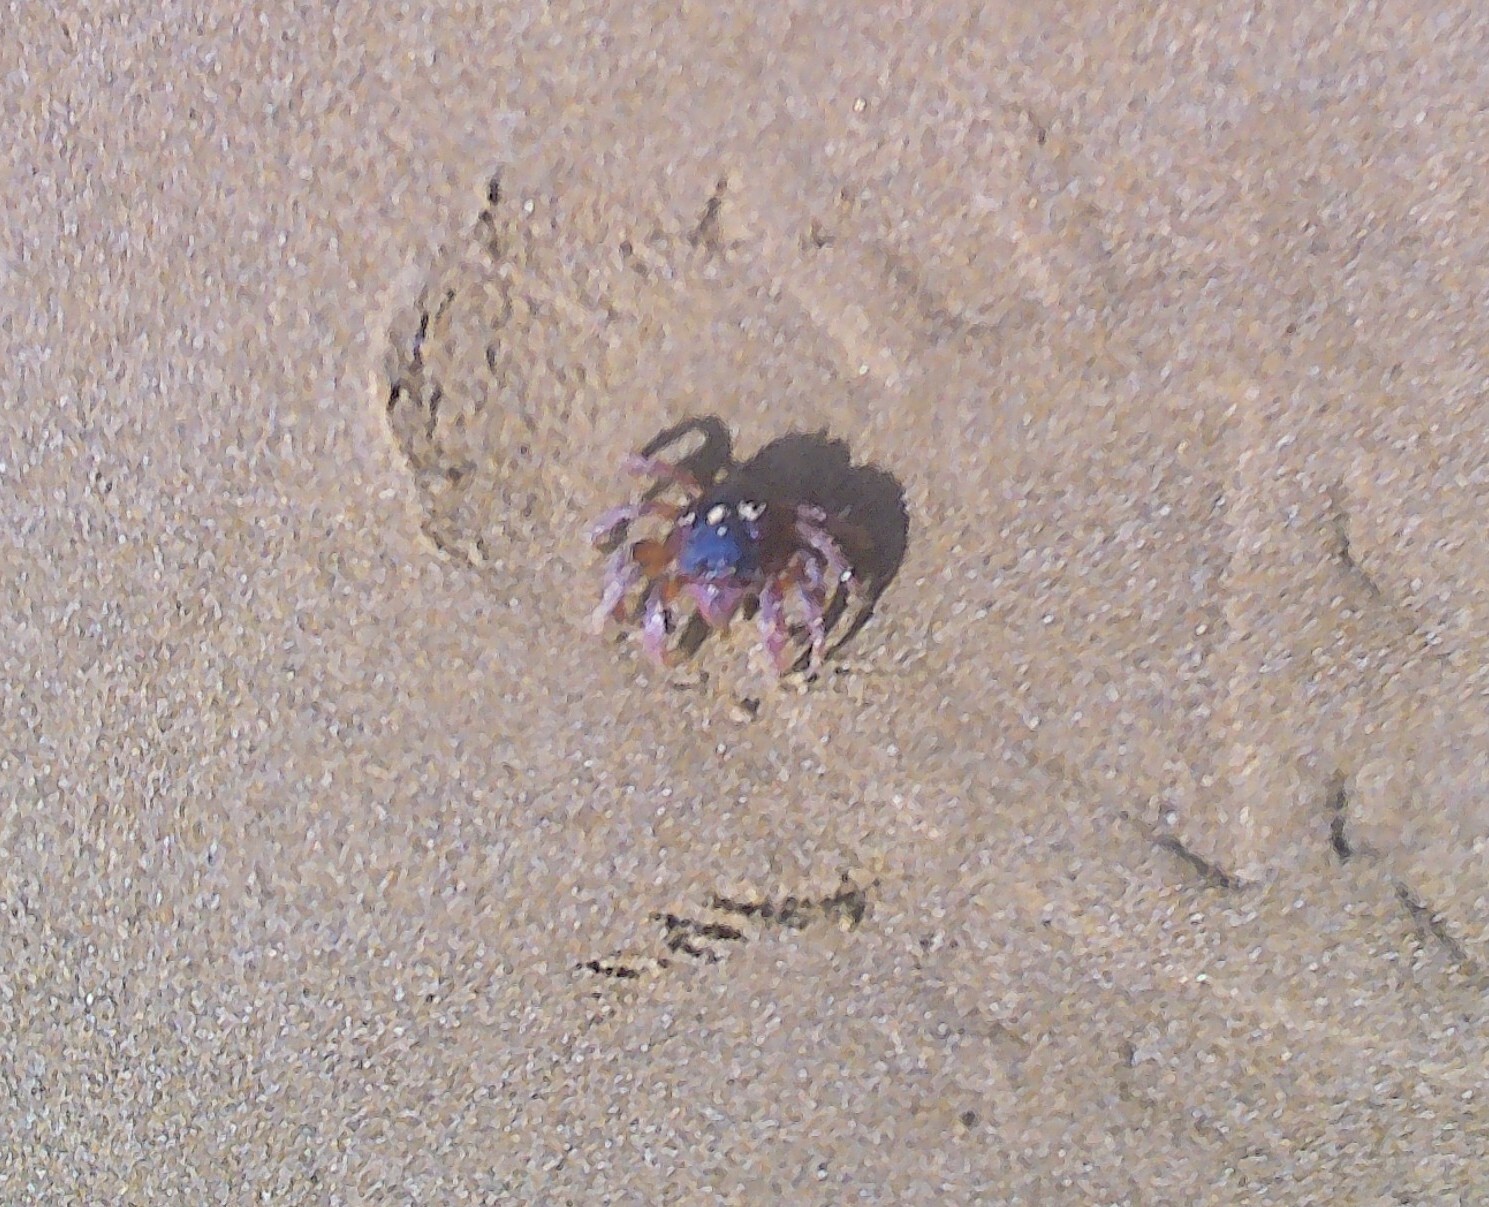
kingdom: Animalia
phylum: Arthropoda
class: Malacostraca
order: Decapoda
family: Mictyridae
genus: Mictyris
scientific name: Mictyris platycheles
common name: Dark blue soldier crab
